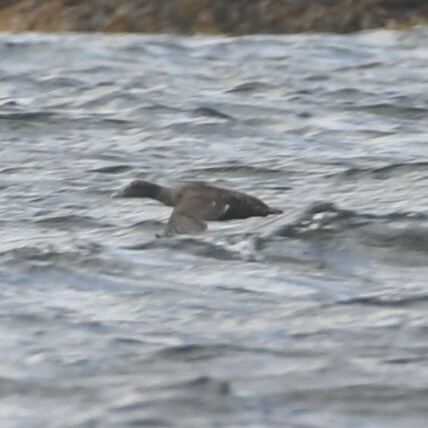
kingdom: Animalia
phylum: Chordata
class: Aves
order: Anseriformes
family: Anatidae
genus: Somateria
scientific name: Somateria mollissima
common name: Common eider
